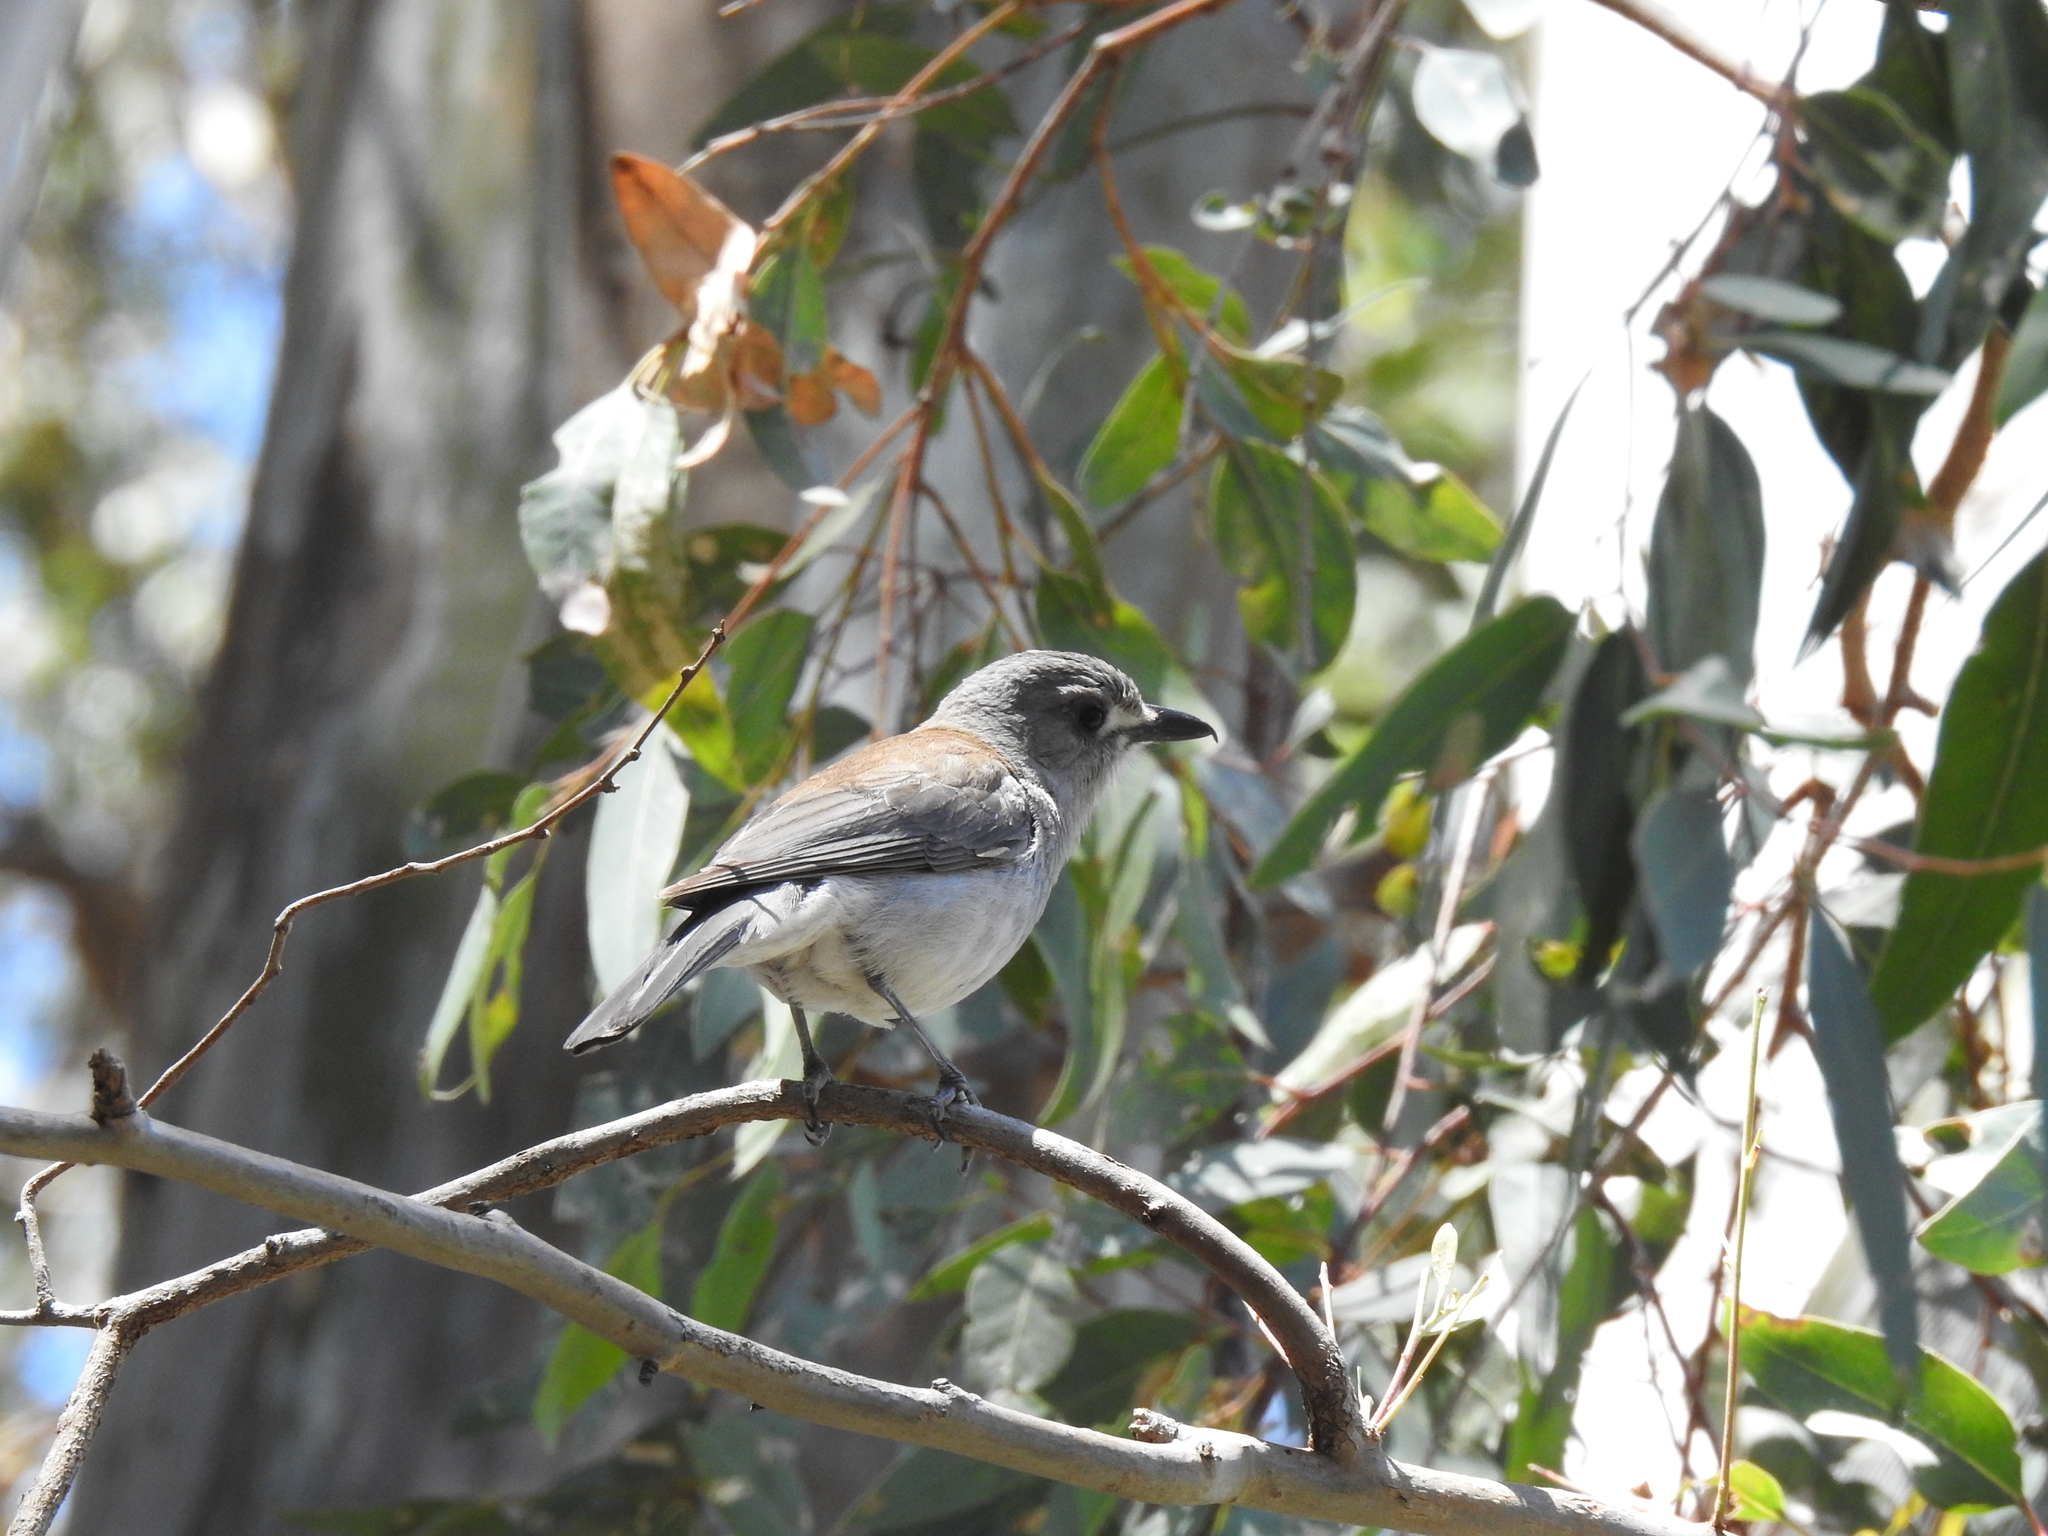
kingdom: Animalia
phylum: Chordata
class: Aves
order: Passeriformes
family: Pachycephalidae
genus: Colluricincla
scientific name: Colluricincla harmonica
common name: Grey shrikethrush
